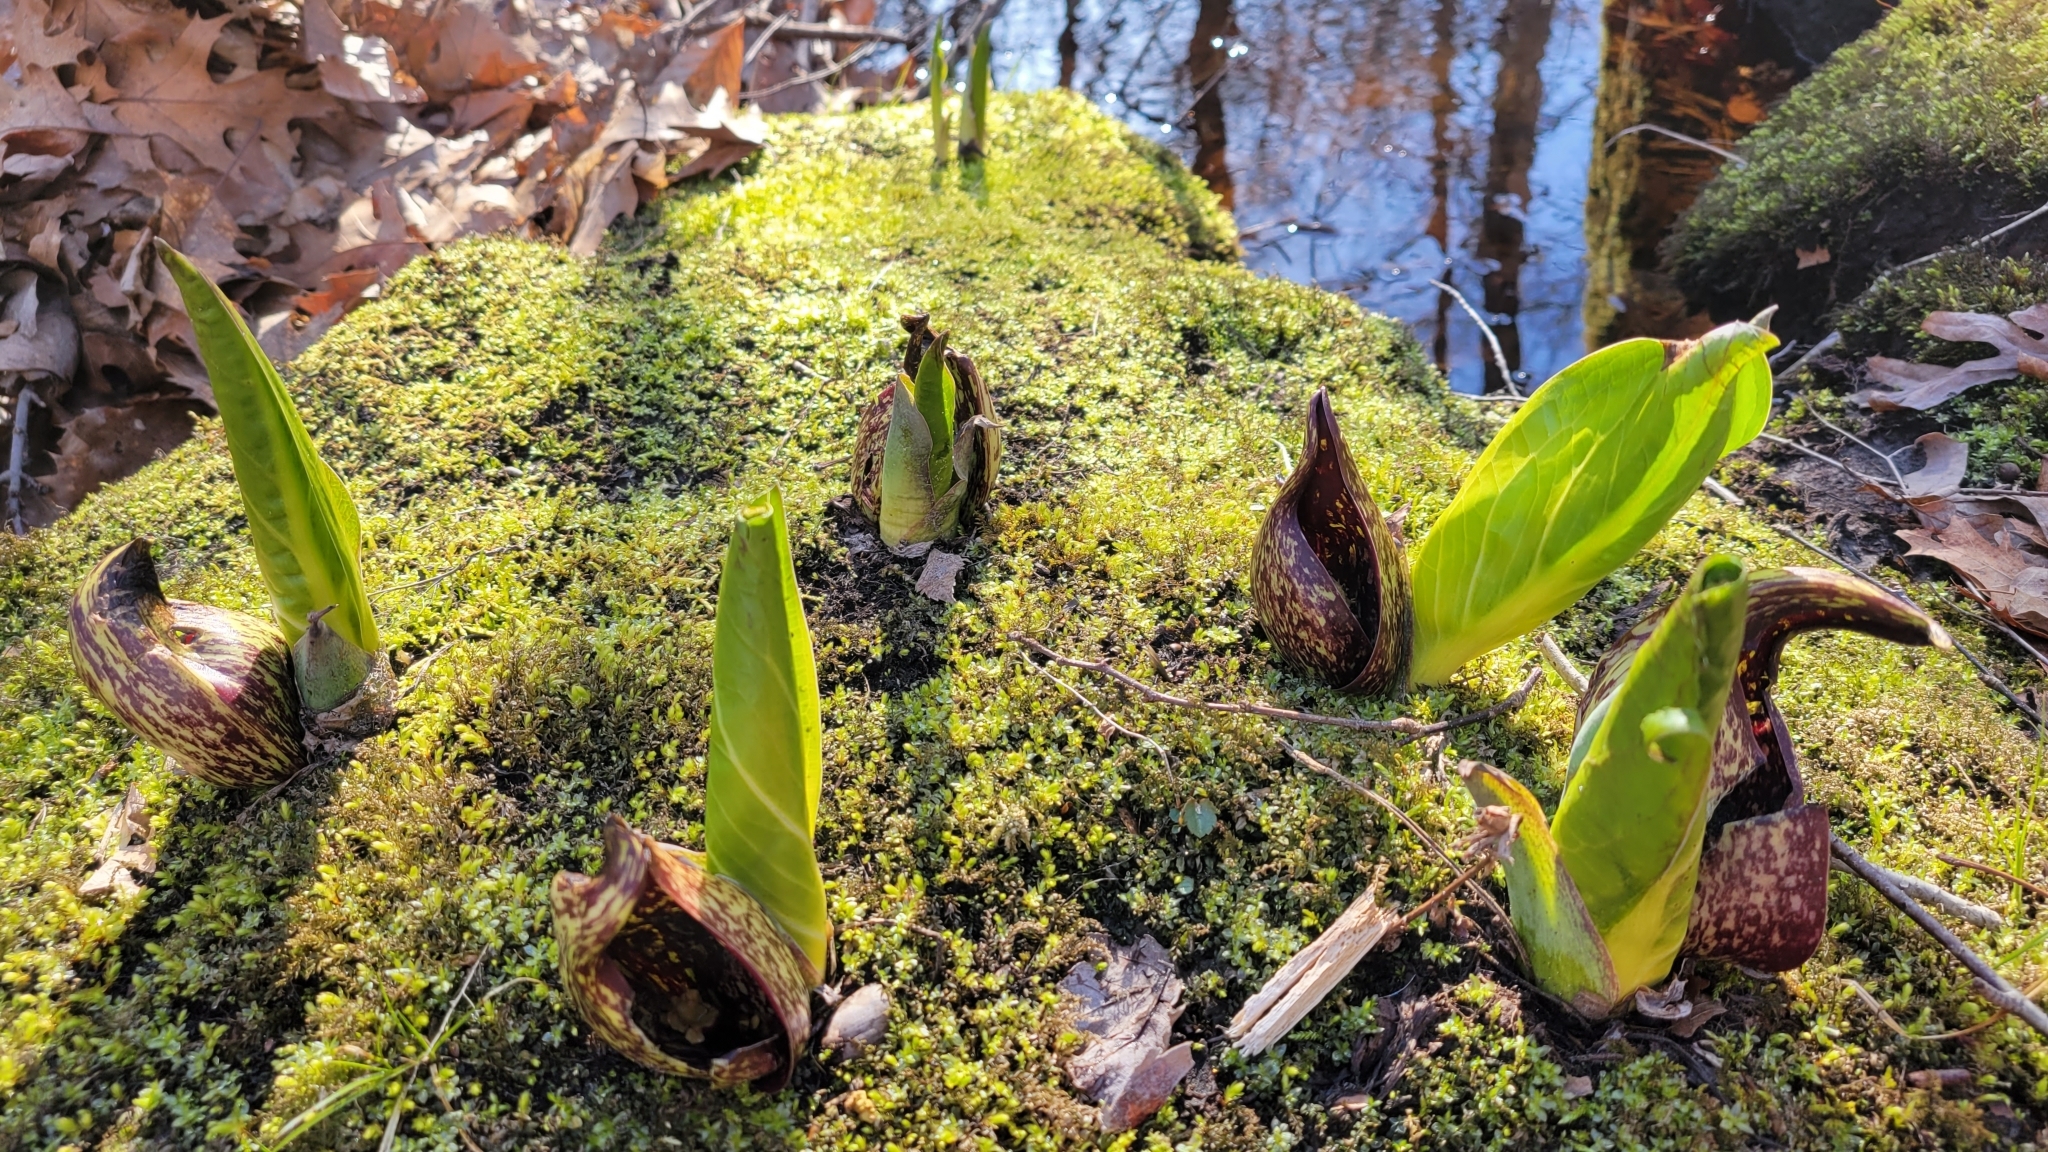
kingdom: Plantae
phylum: Tracheophyta
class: Liliopsida
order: Alismatales
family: Araceae
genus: Symplocarpus
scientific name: Symplocarpus foetidus
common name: Eastern skunk cabbage
